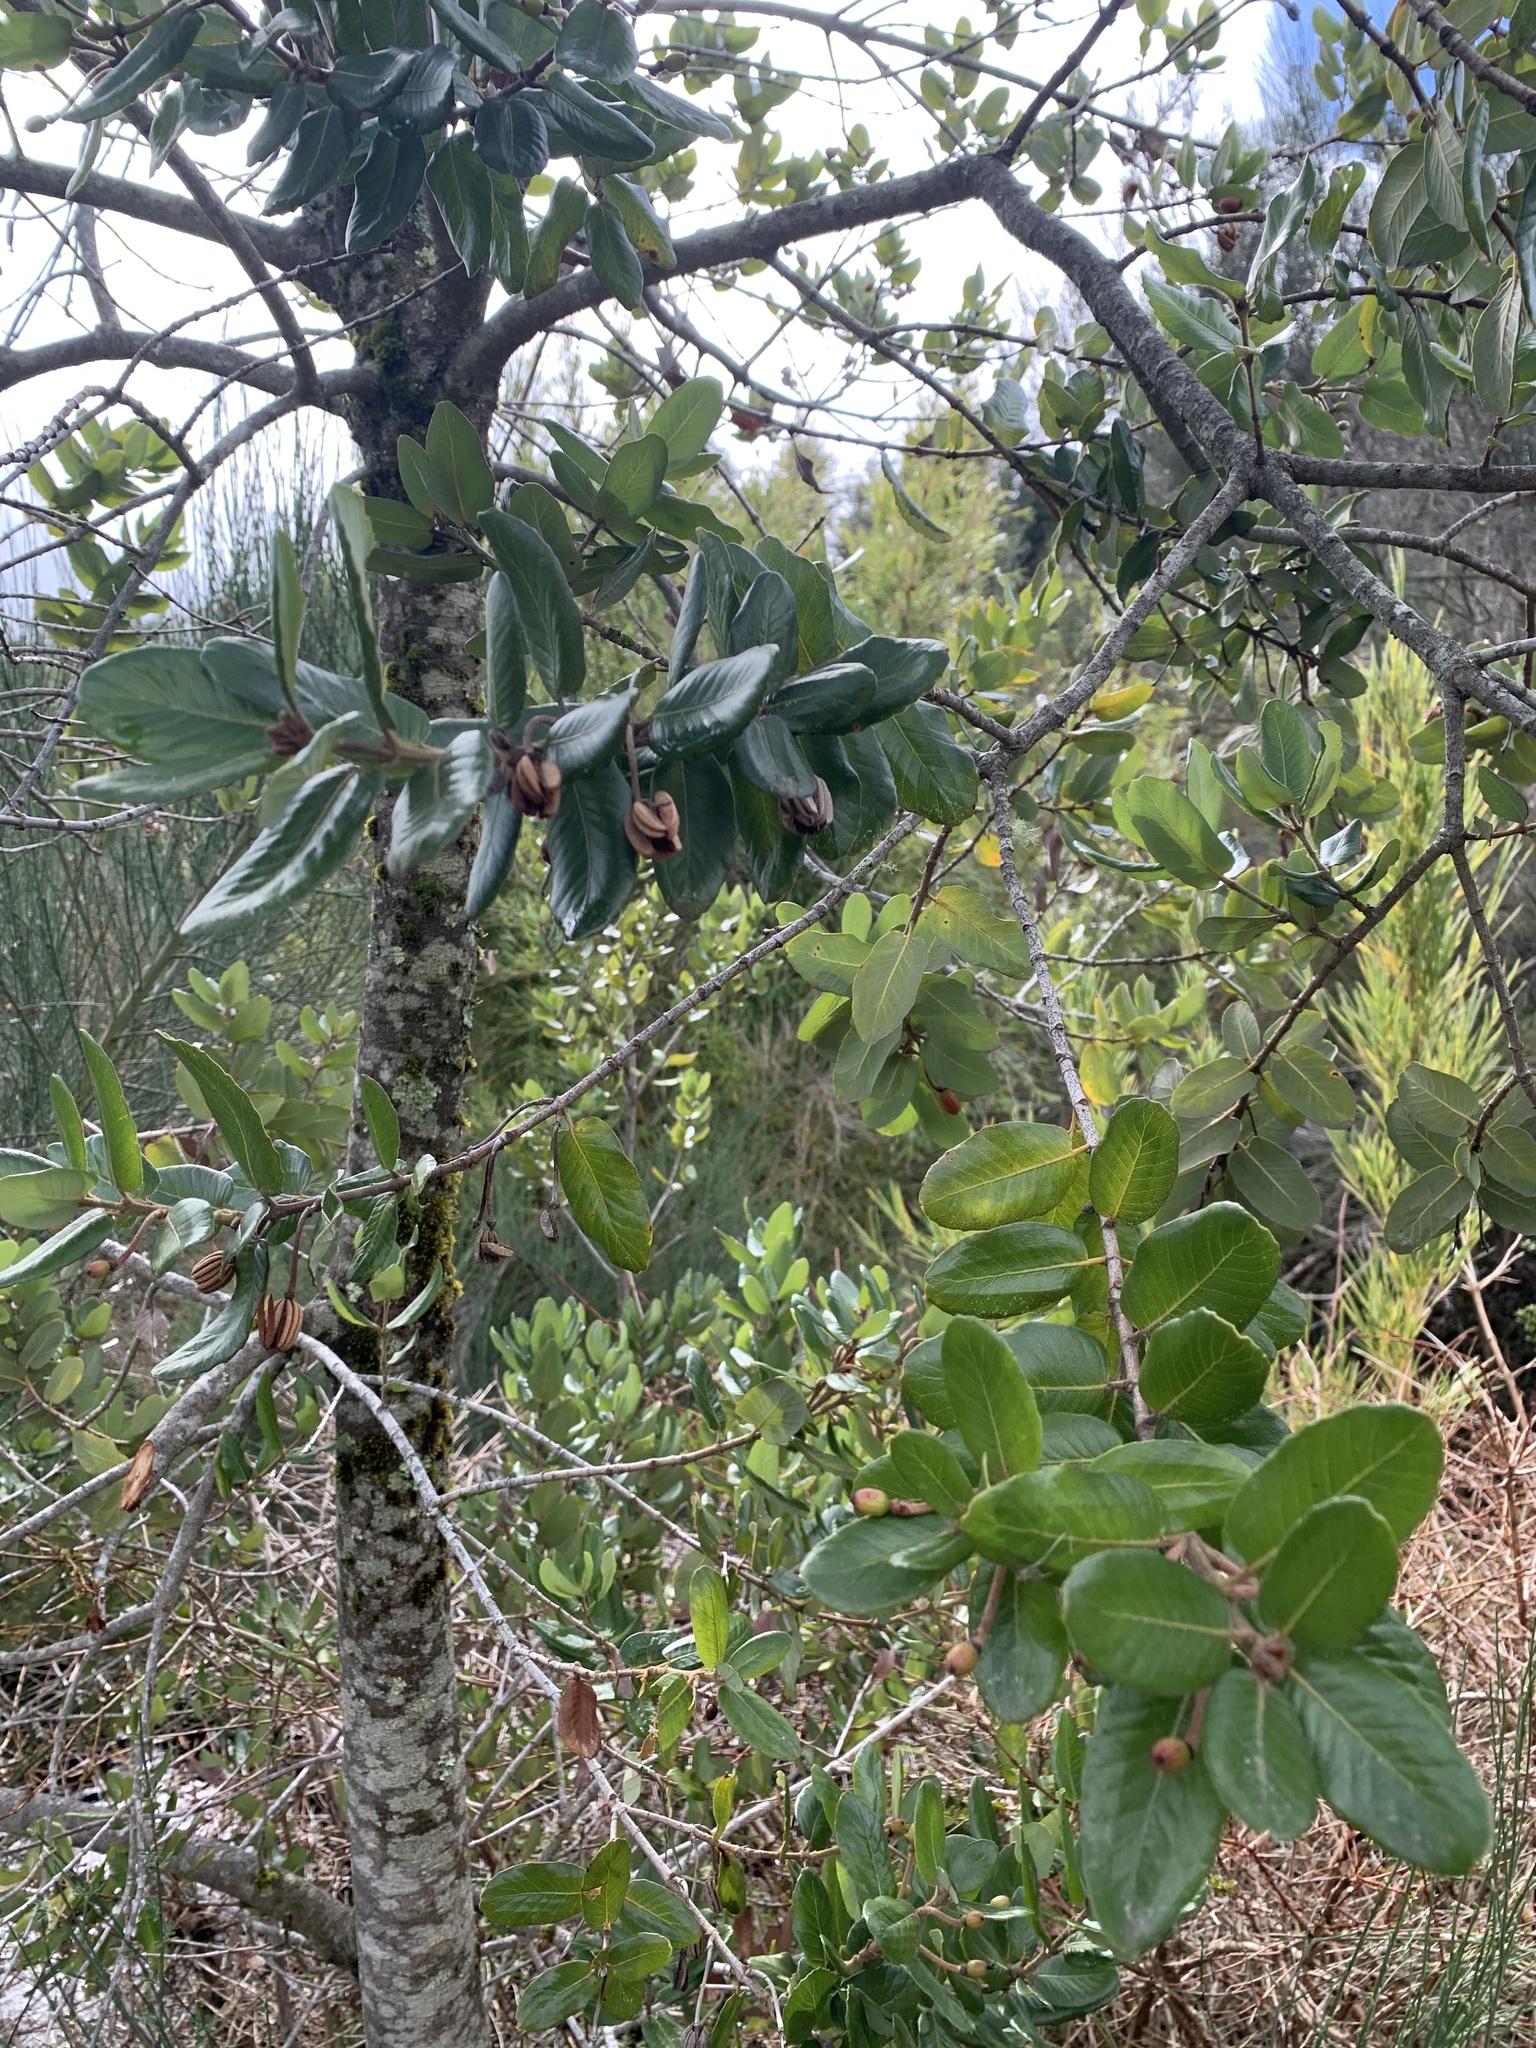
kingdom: Plantae
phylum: Tracheophyta
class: Magnoliopsida
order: Oxalidales
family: Cunoniaceae
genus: Eucryphia
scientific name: Eucryphia cordifolia
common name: Ulmo
